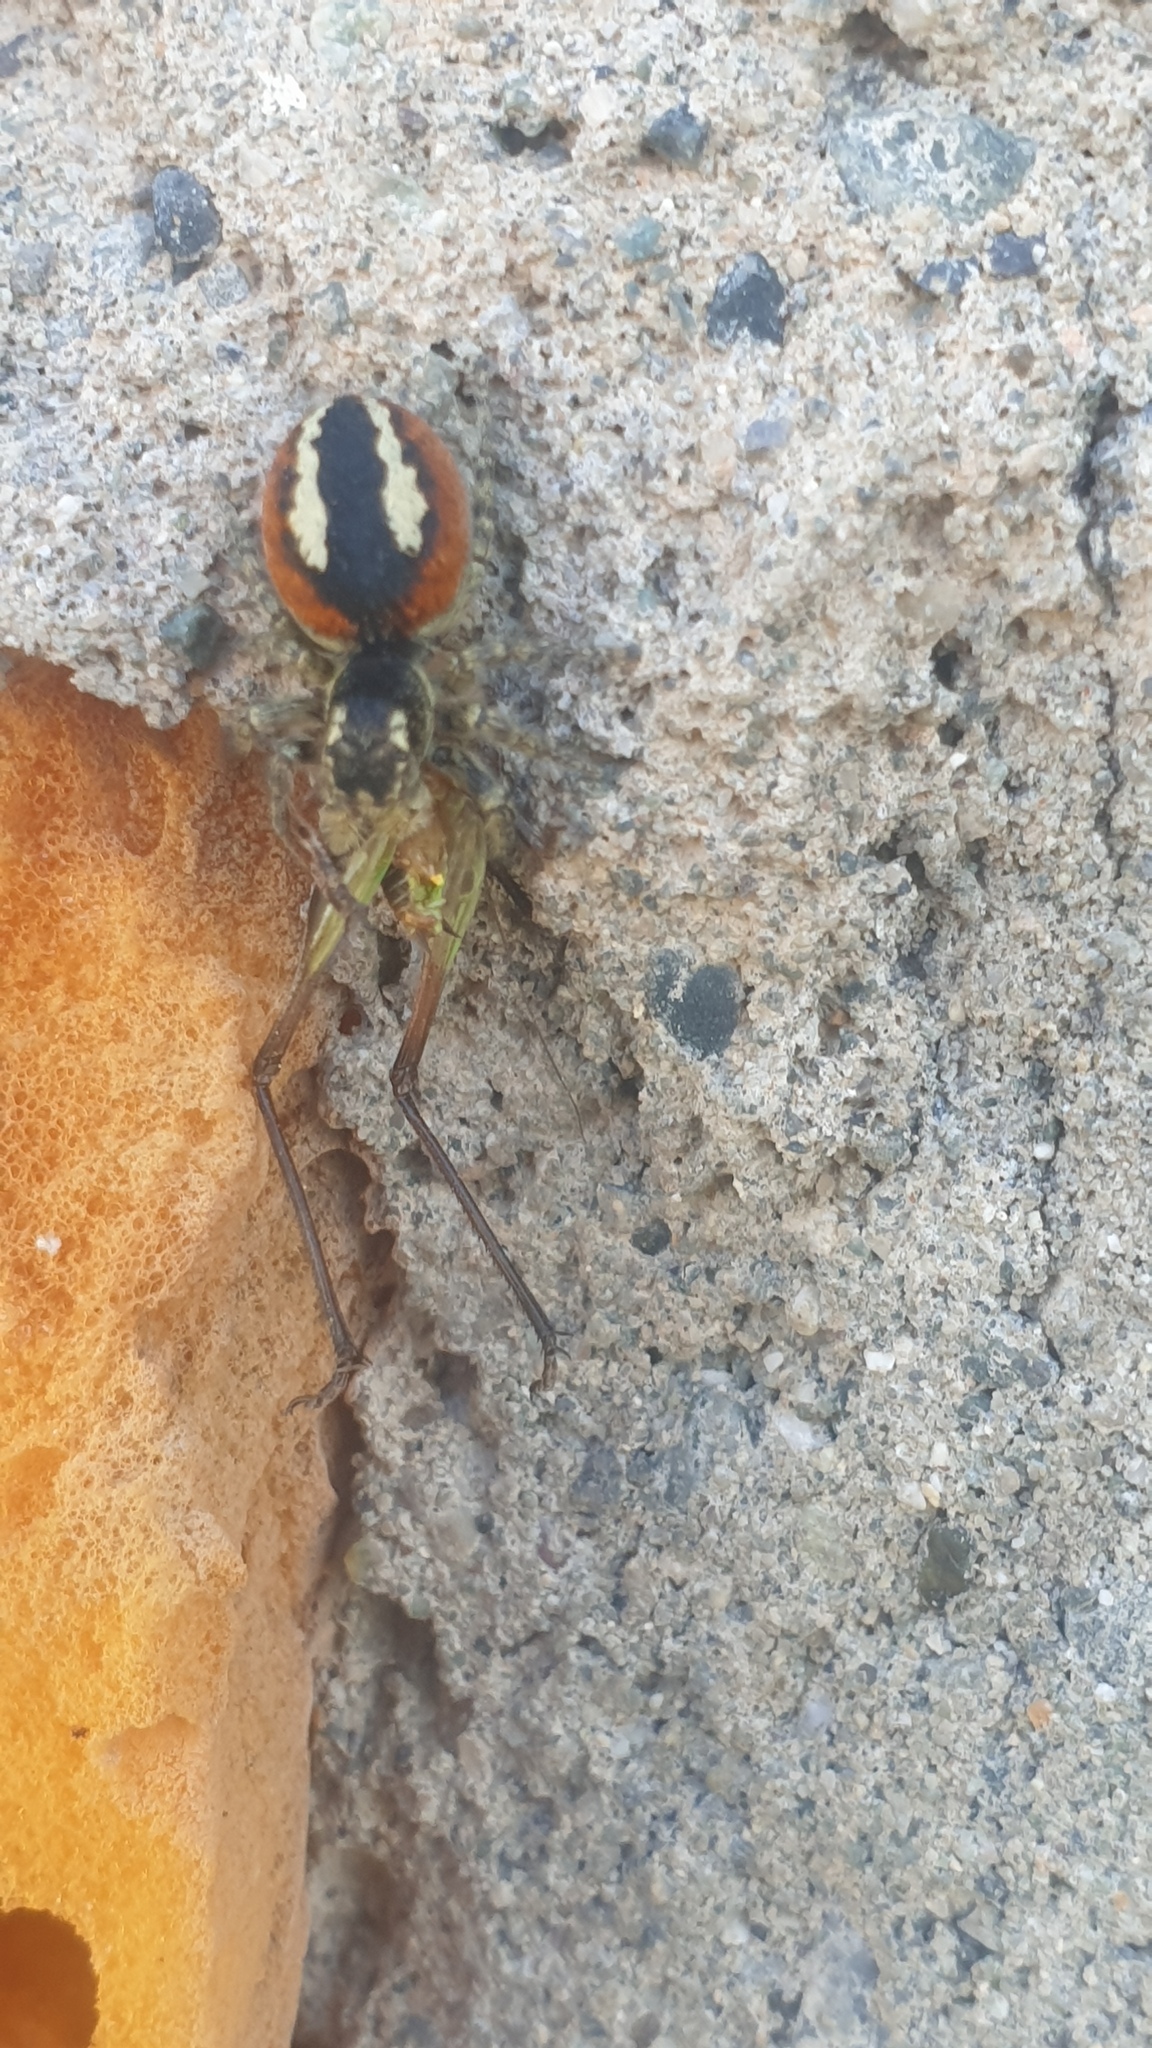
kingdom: Animalia
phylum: Arthropoda
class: Arachnida
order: Araneae
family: Salticidae
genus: Philaeus
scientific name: Philaeus chrysops
